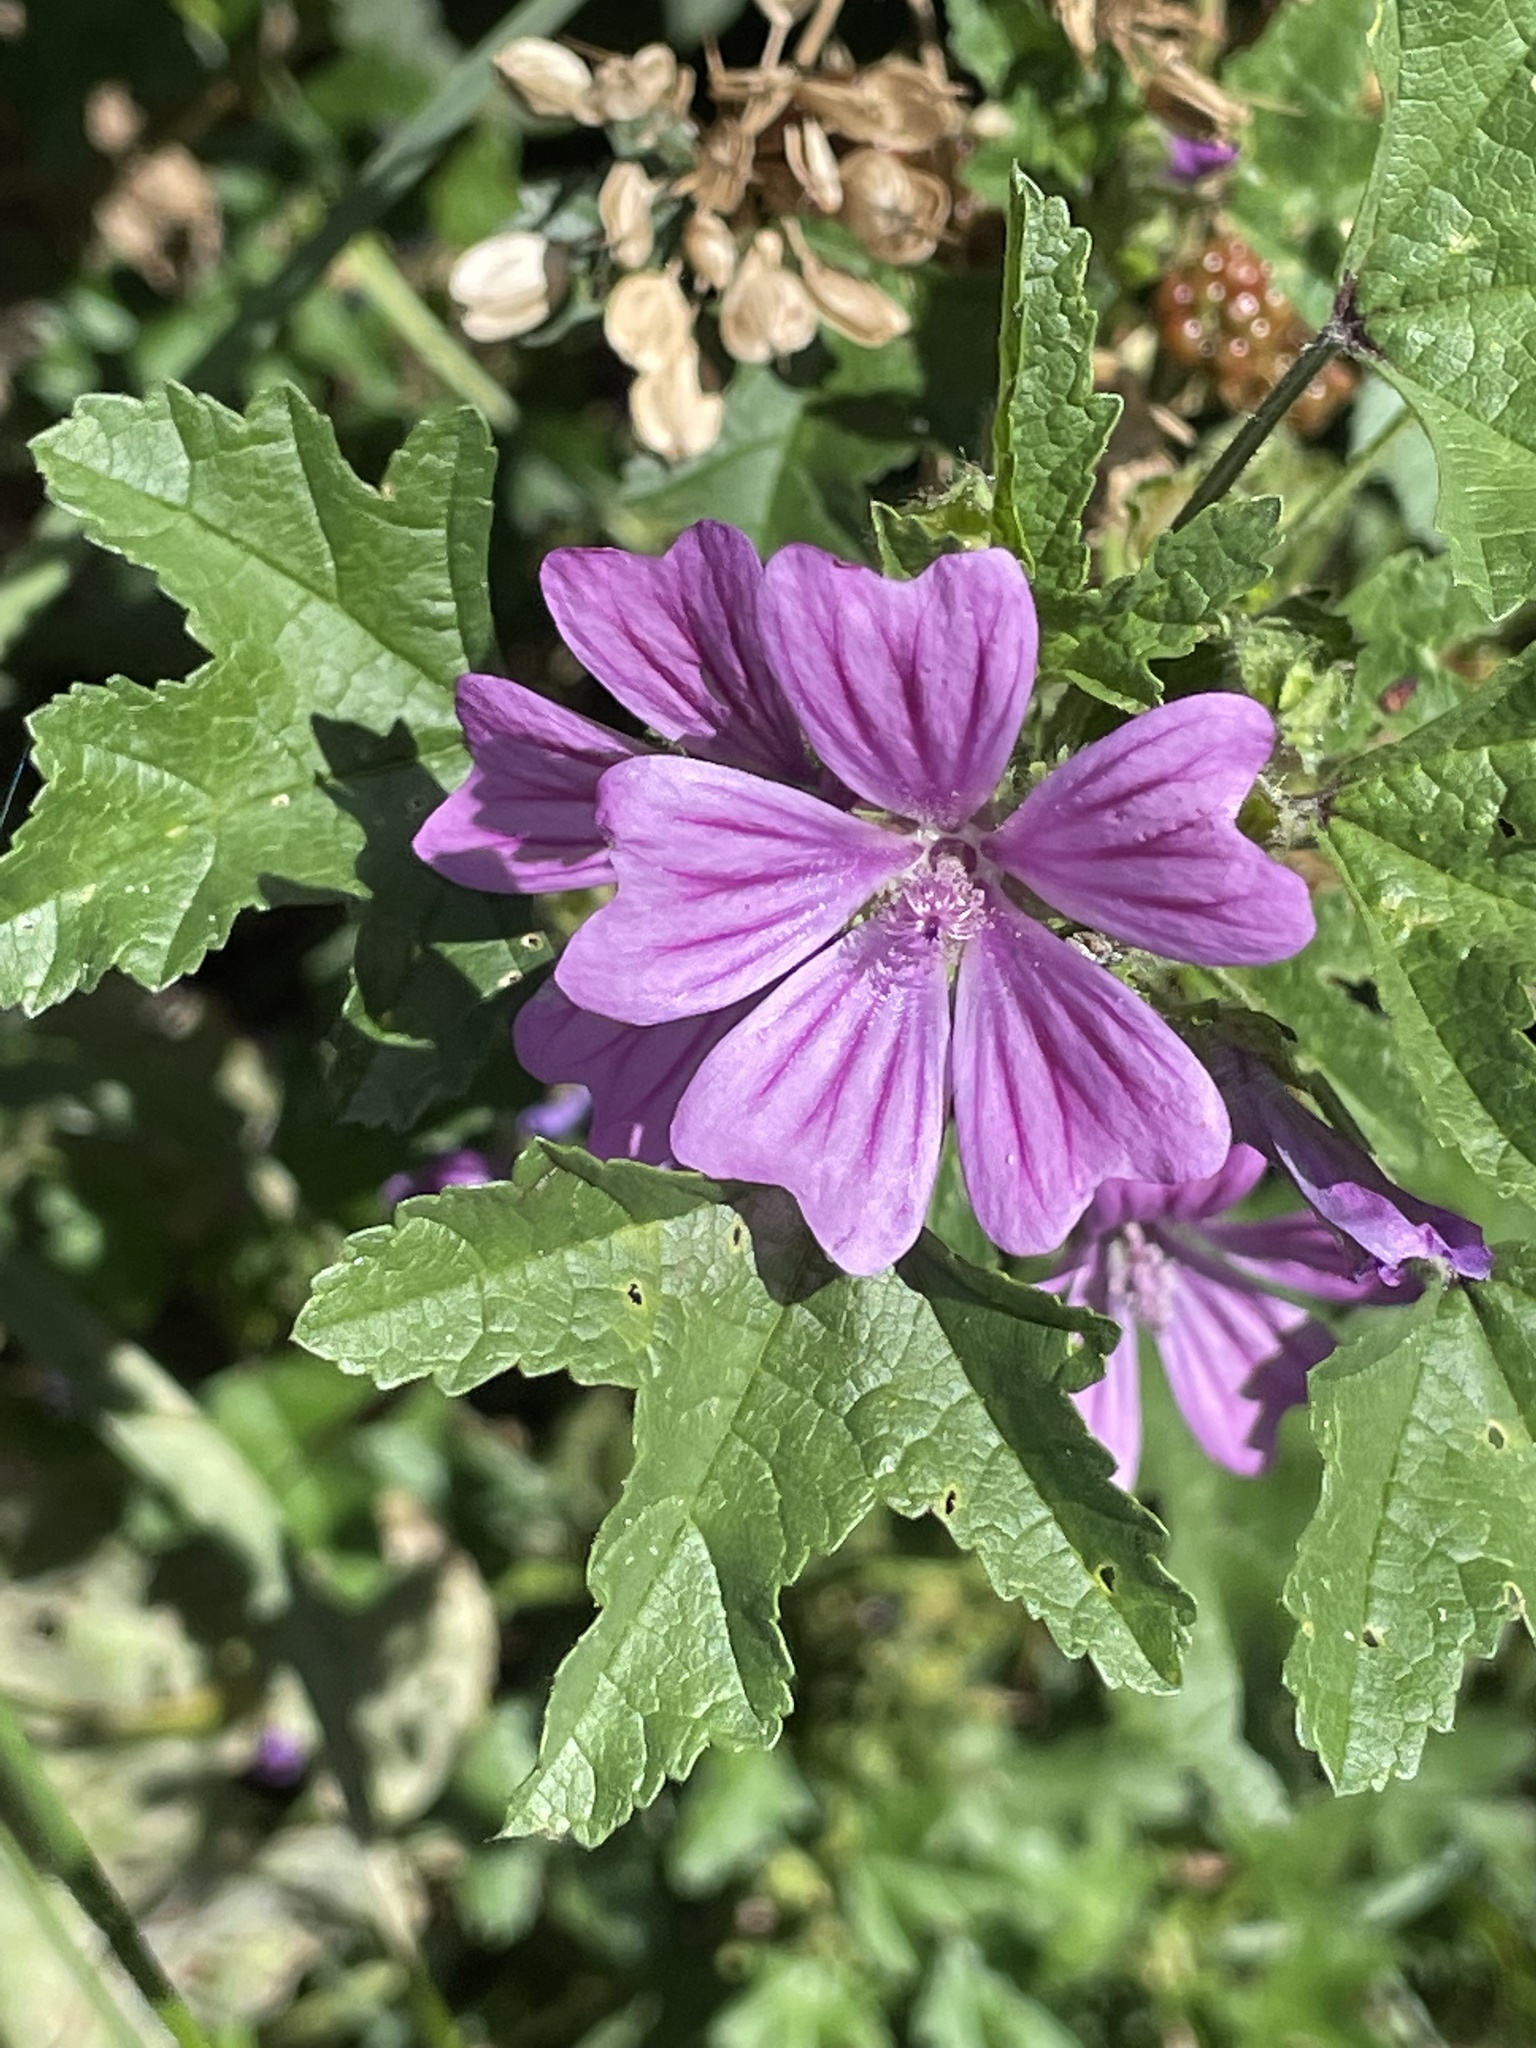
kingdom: Plantae
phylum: Tracheophyta
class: Magnoliopsida
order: Malvales
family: Malvaceae
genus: Malva
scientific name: Malva sylvestris
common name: Common mallow
